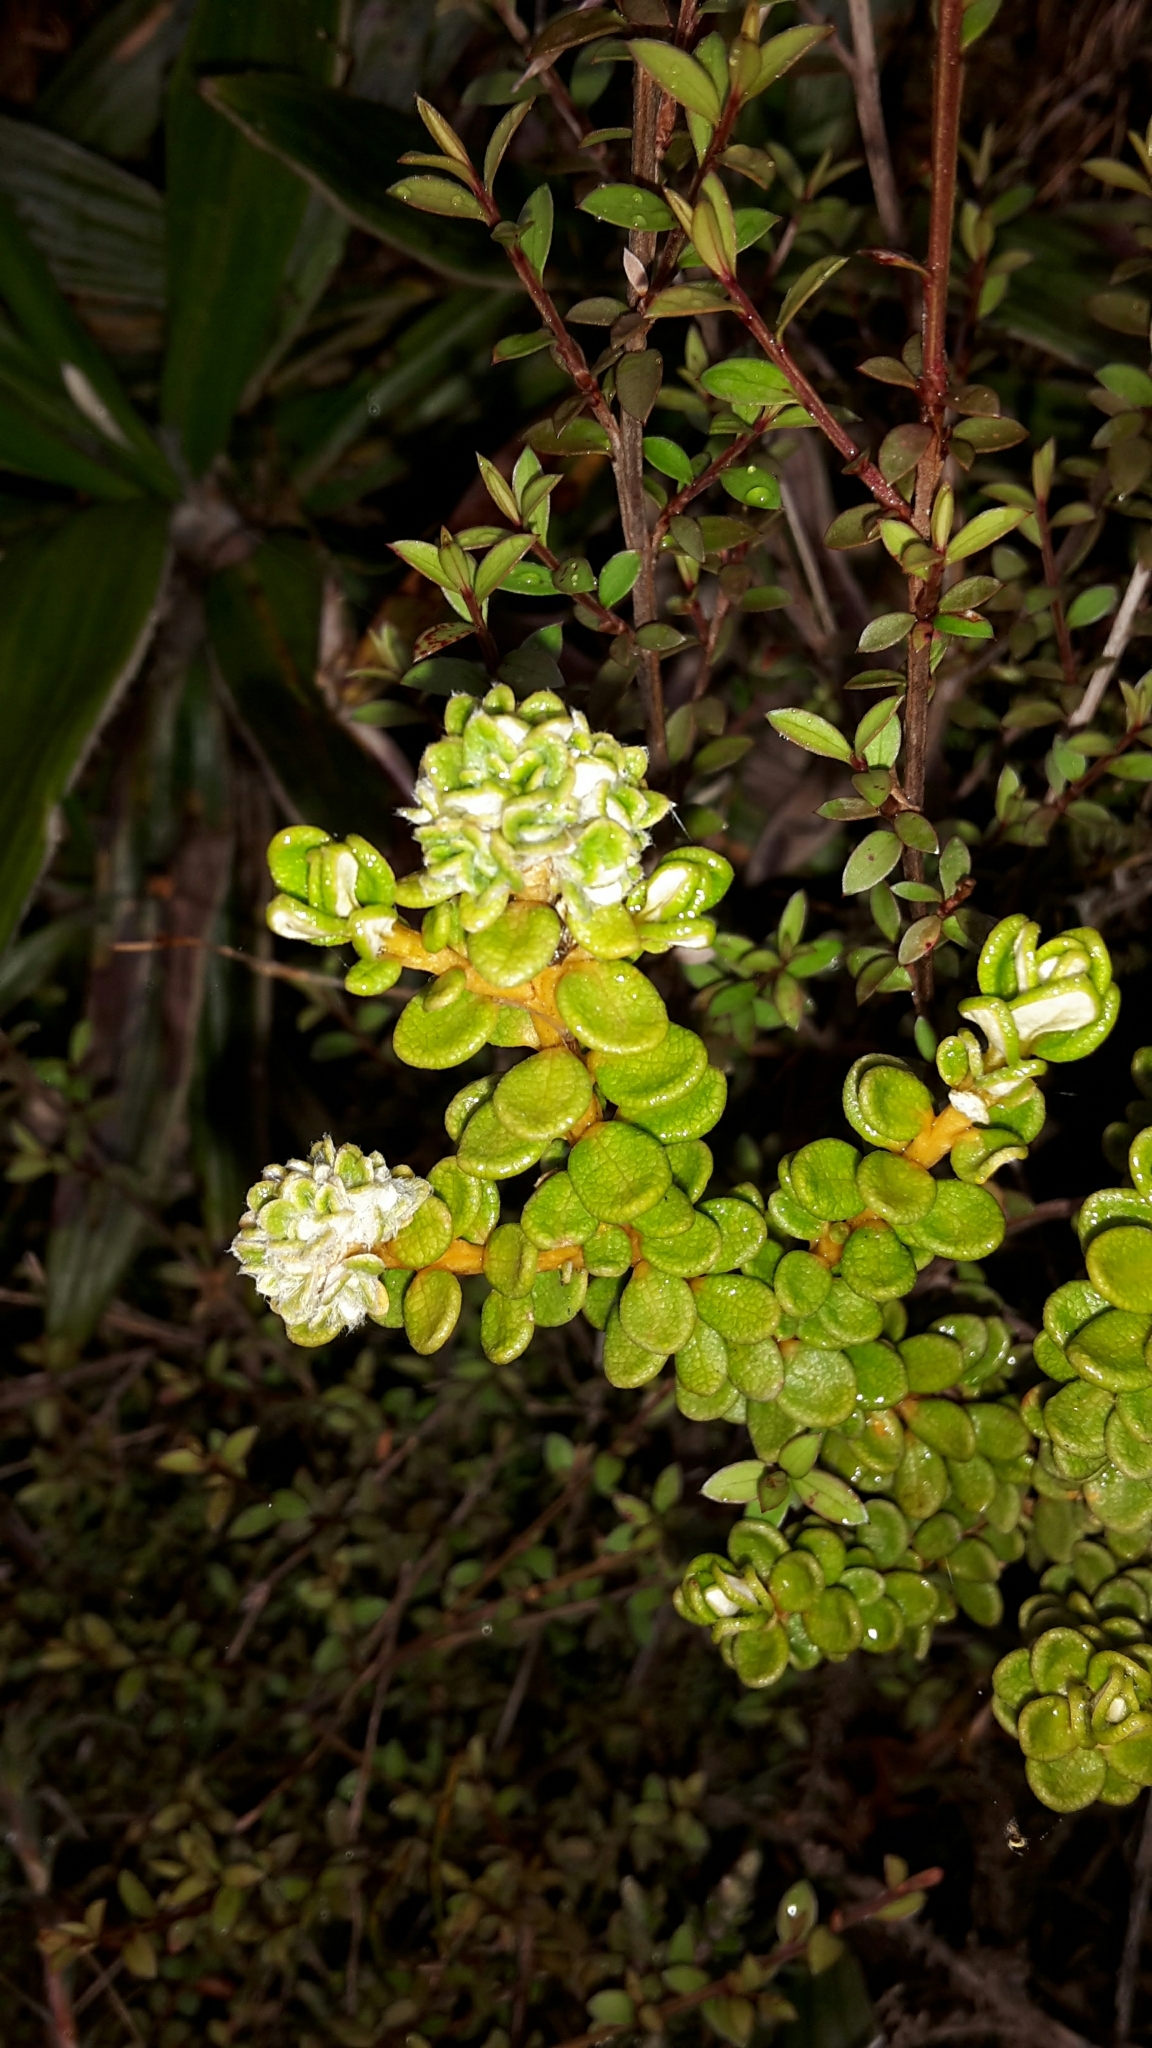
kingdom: Plantae
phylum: Tracheophyta
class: Magnoliopsida
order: Asterales
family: Asteraceae
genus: Olearia
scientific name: Olearia nummularifolia
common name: Sticky daisybush
